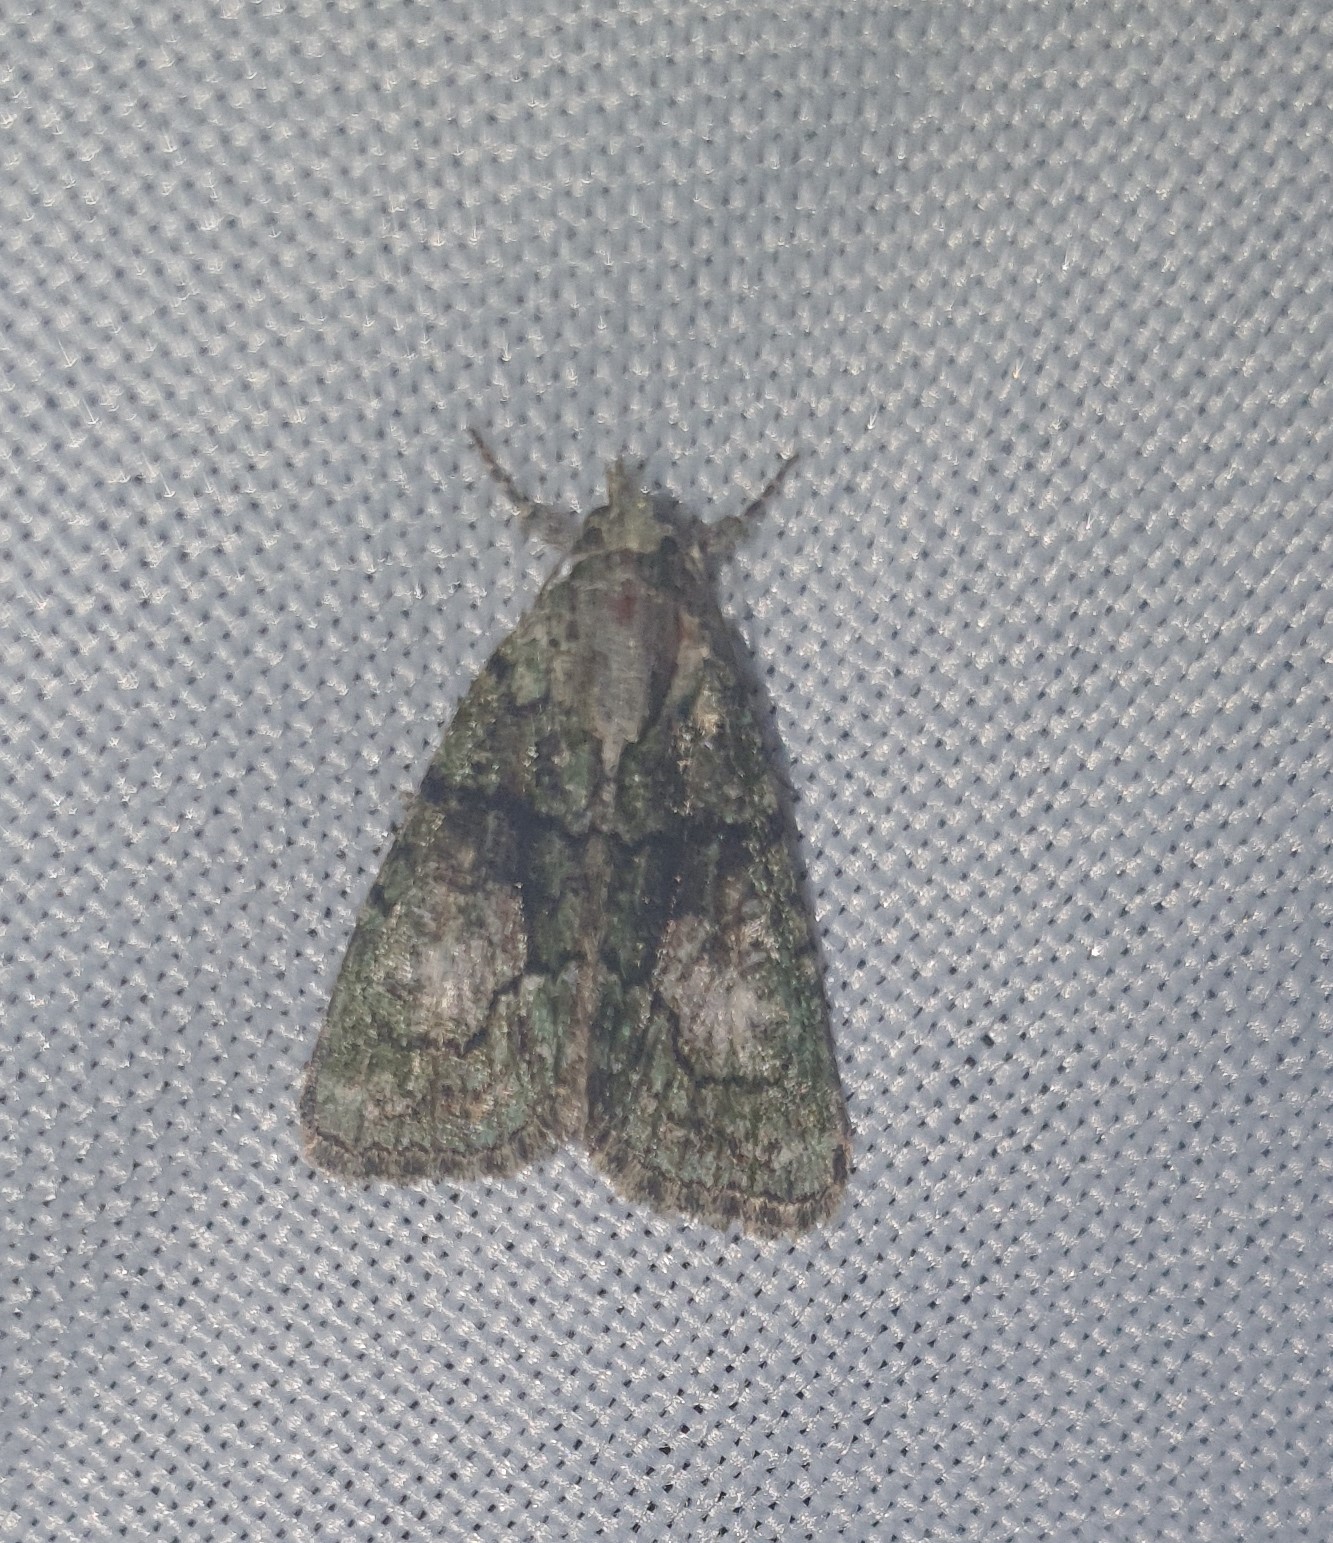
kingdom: Animalia
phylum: Arthropoda
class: Insecta
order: Lepidoptera
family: Noctuidae
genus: Cryphia
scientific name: Cryphia algae
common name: Tree-lichen beauty
